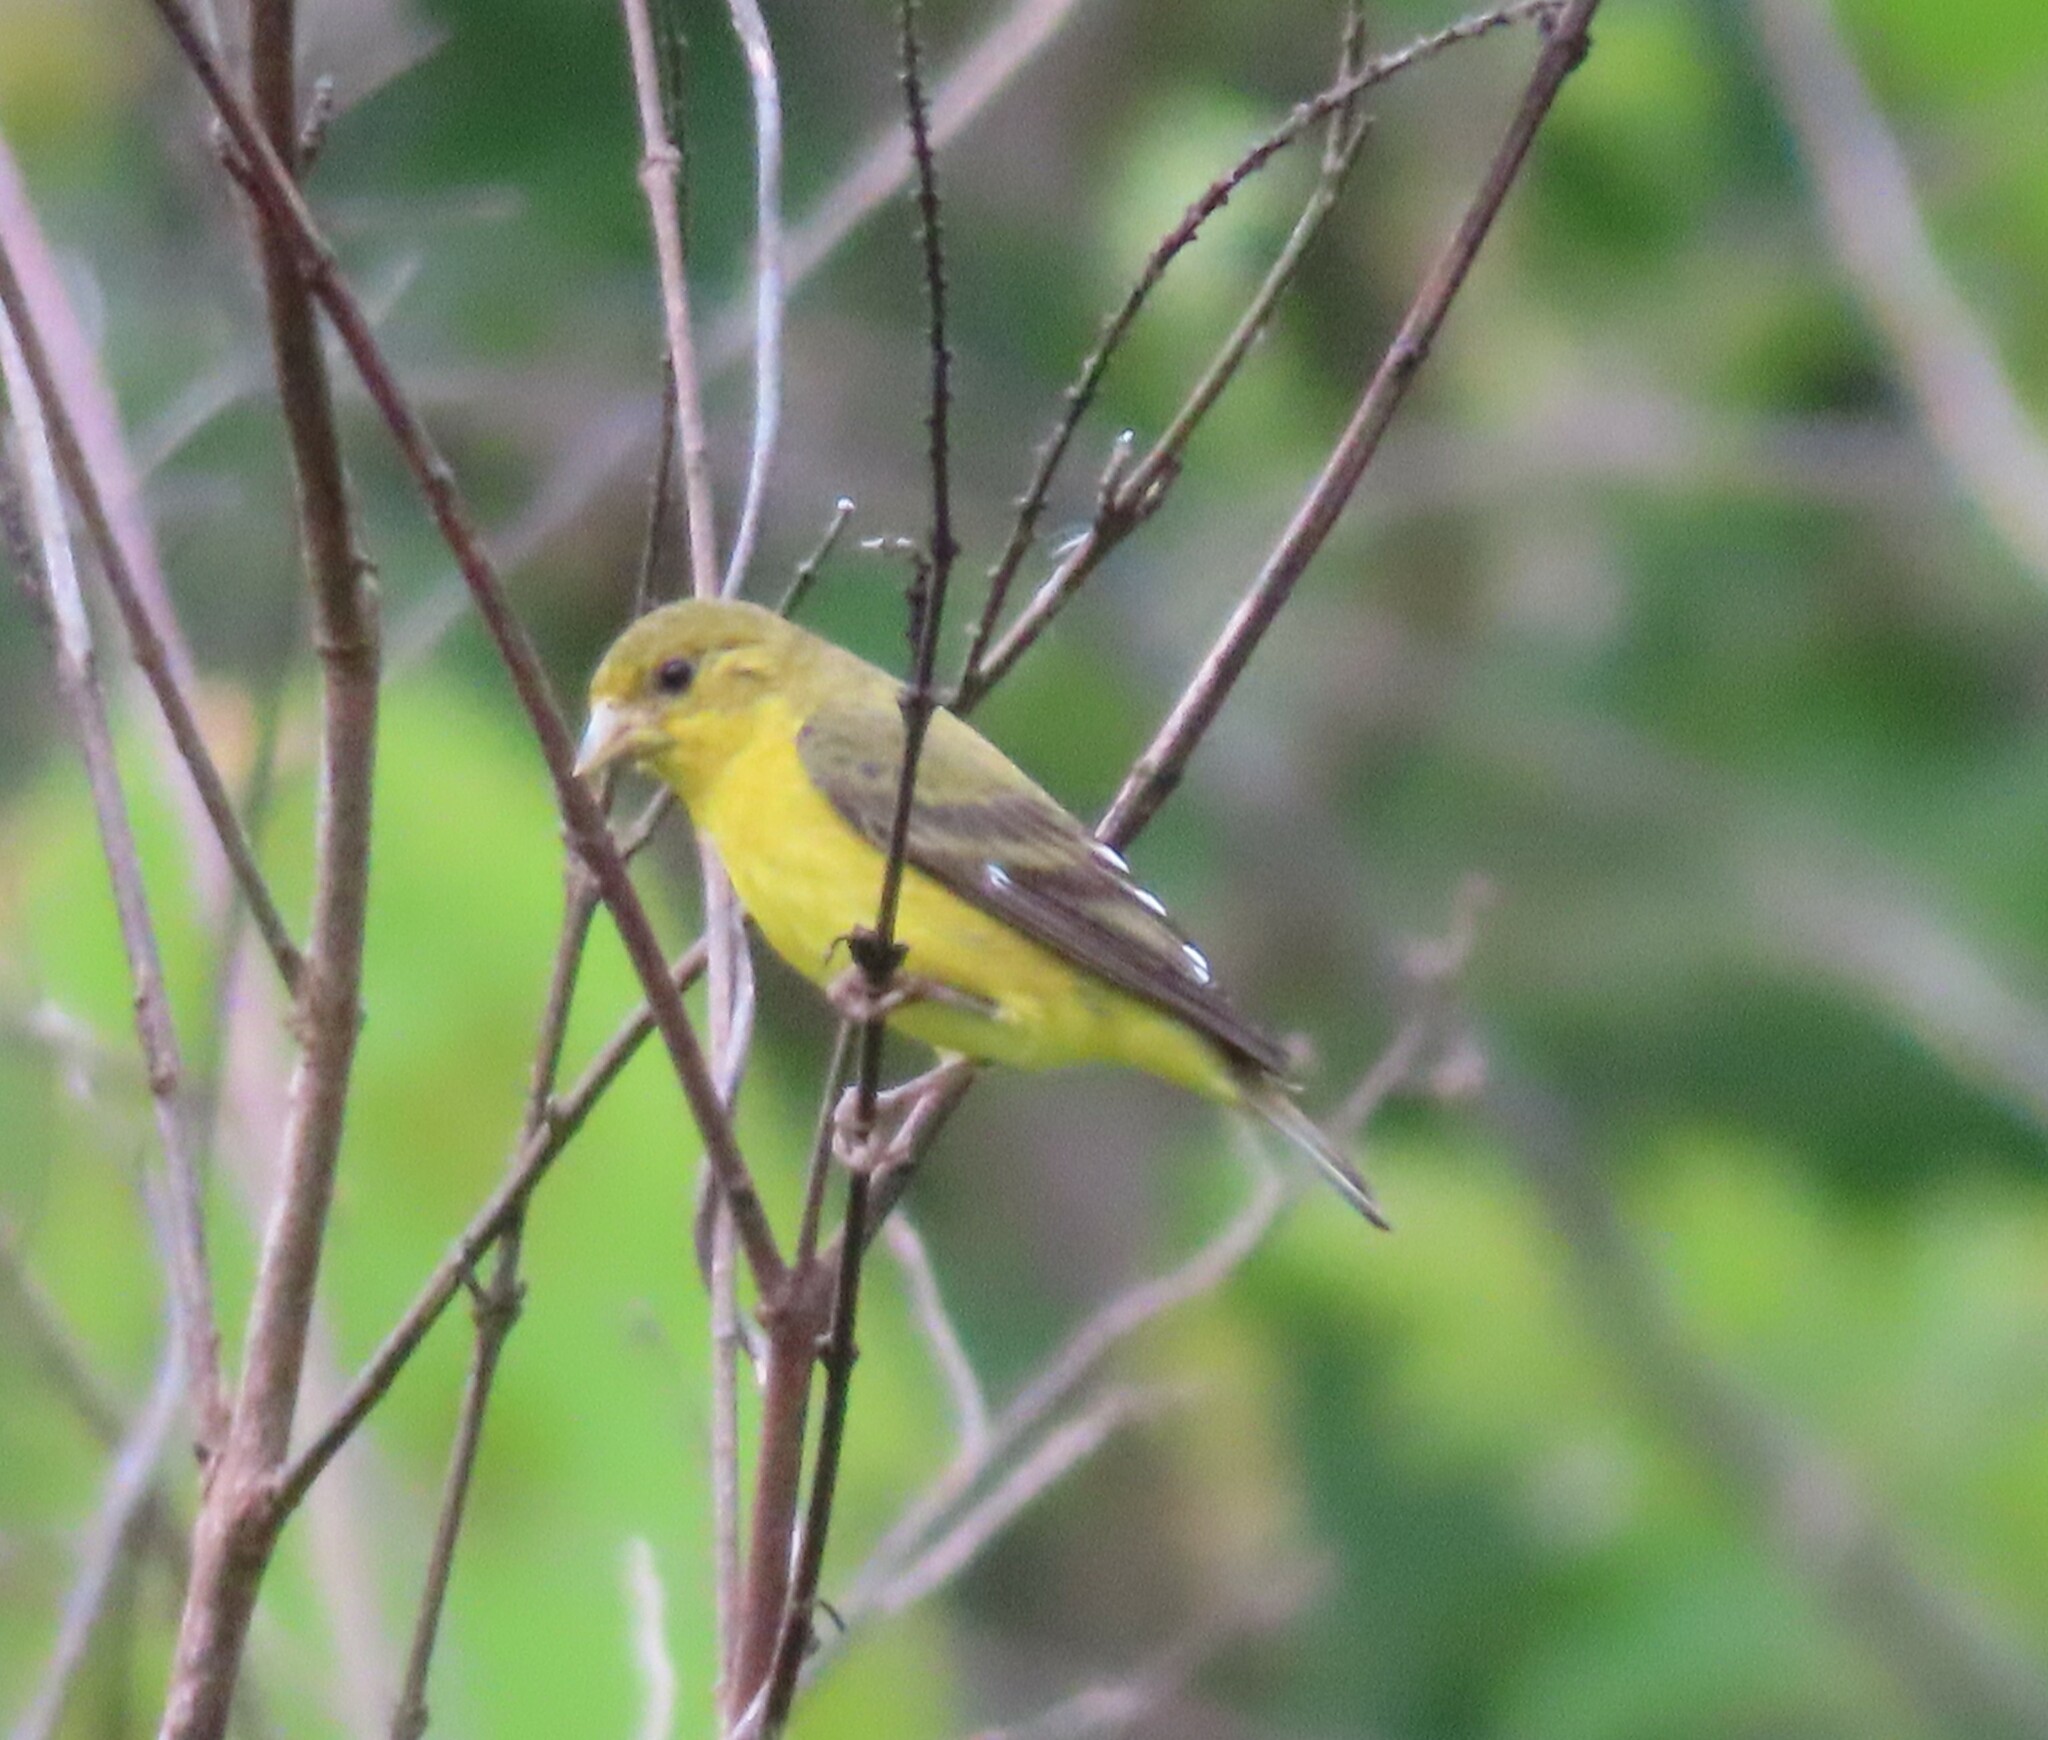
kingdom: Animalia
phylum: Chordata
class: Aves
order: Passeriformes
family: Fringillidae
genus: Spinus
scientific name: Spinus psaltria
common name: Lesser goldfinch
